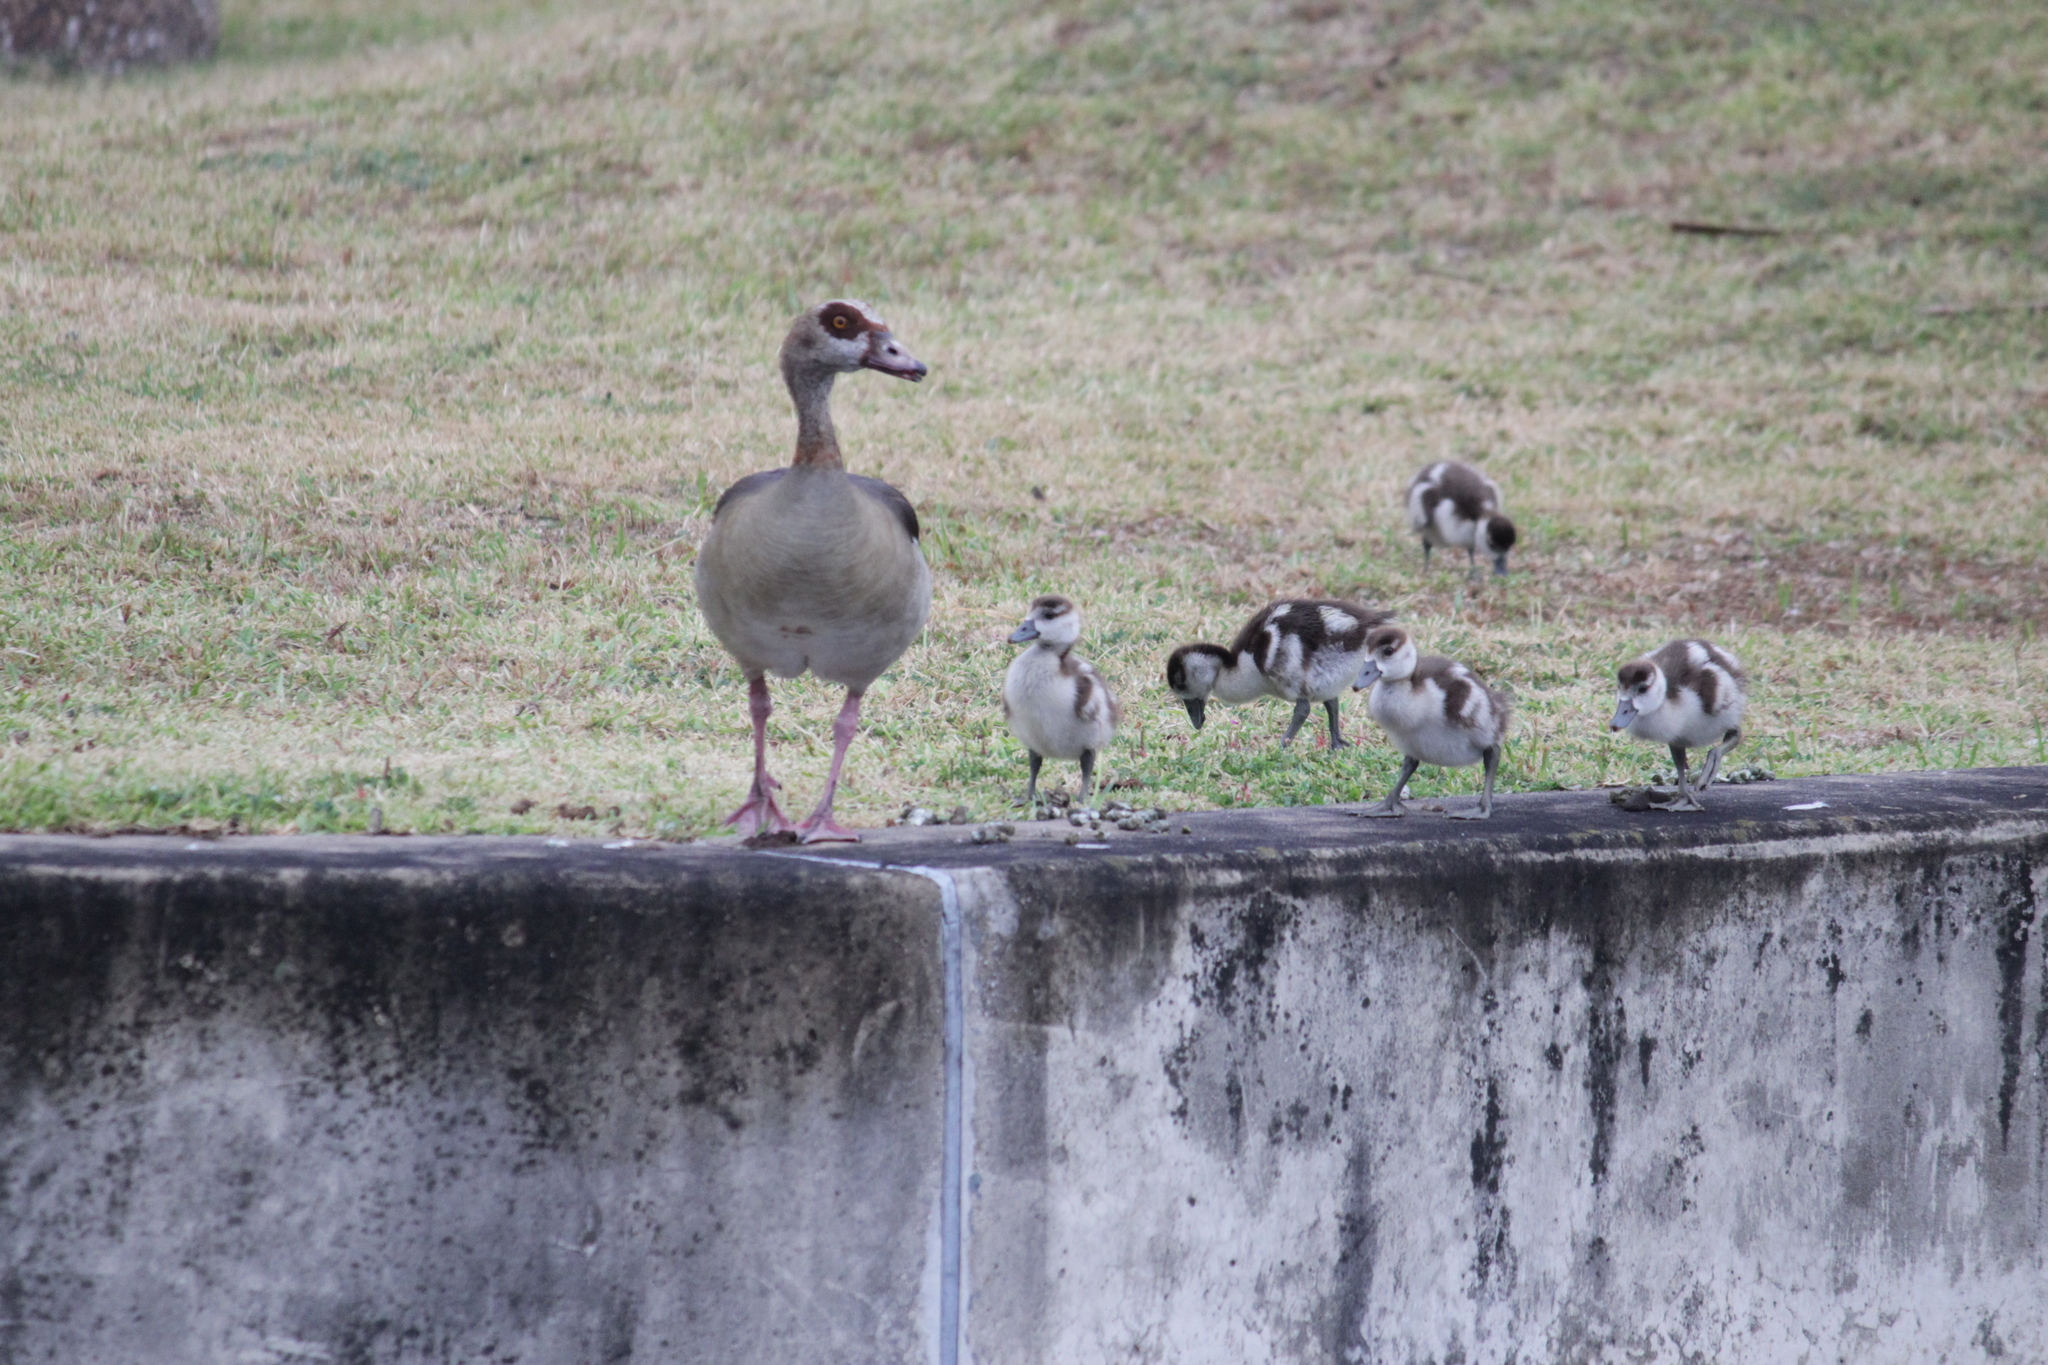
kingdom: Animalia
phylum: Chordata
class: Aves
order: Anseriformes
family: Anatidae
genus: Alopochen
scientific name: Alopochen aegyptiaca
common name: Egyptian goose
